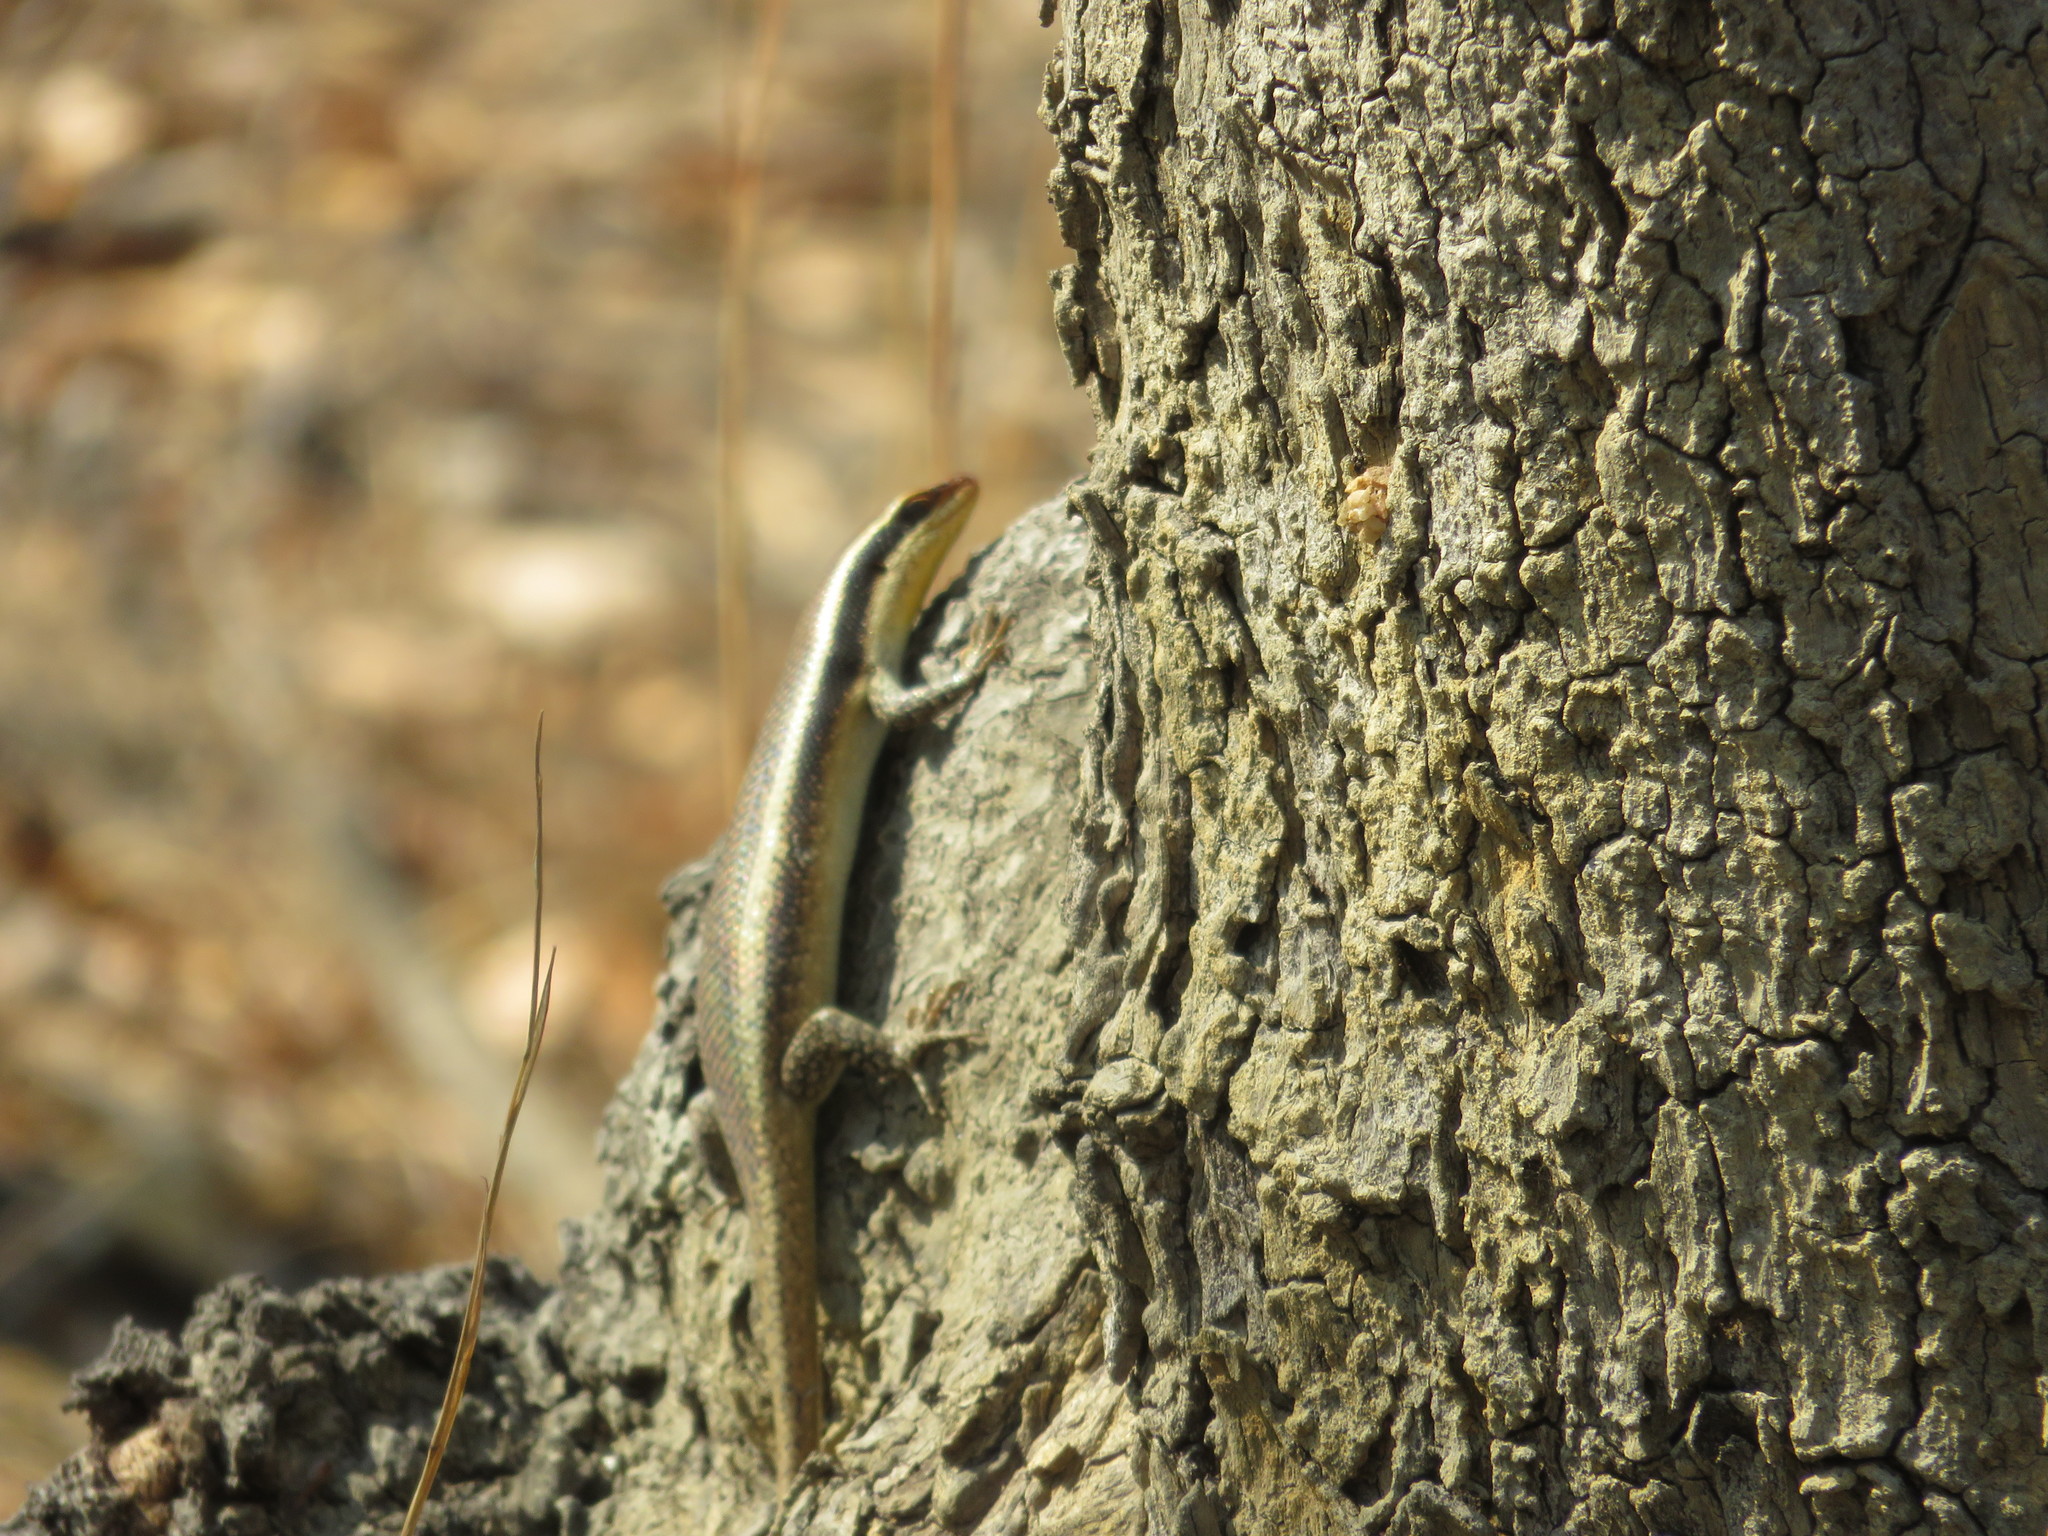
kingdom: Animalia
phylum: Chordata
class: Squamata
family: Scincidae
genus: Trachylepis
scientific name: Trachylepis wahlbergii
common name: Wahlberg’s striped skink
